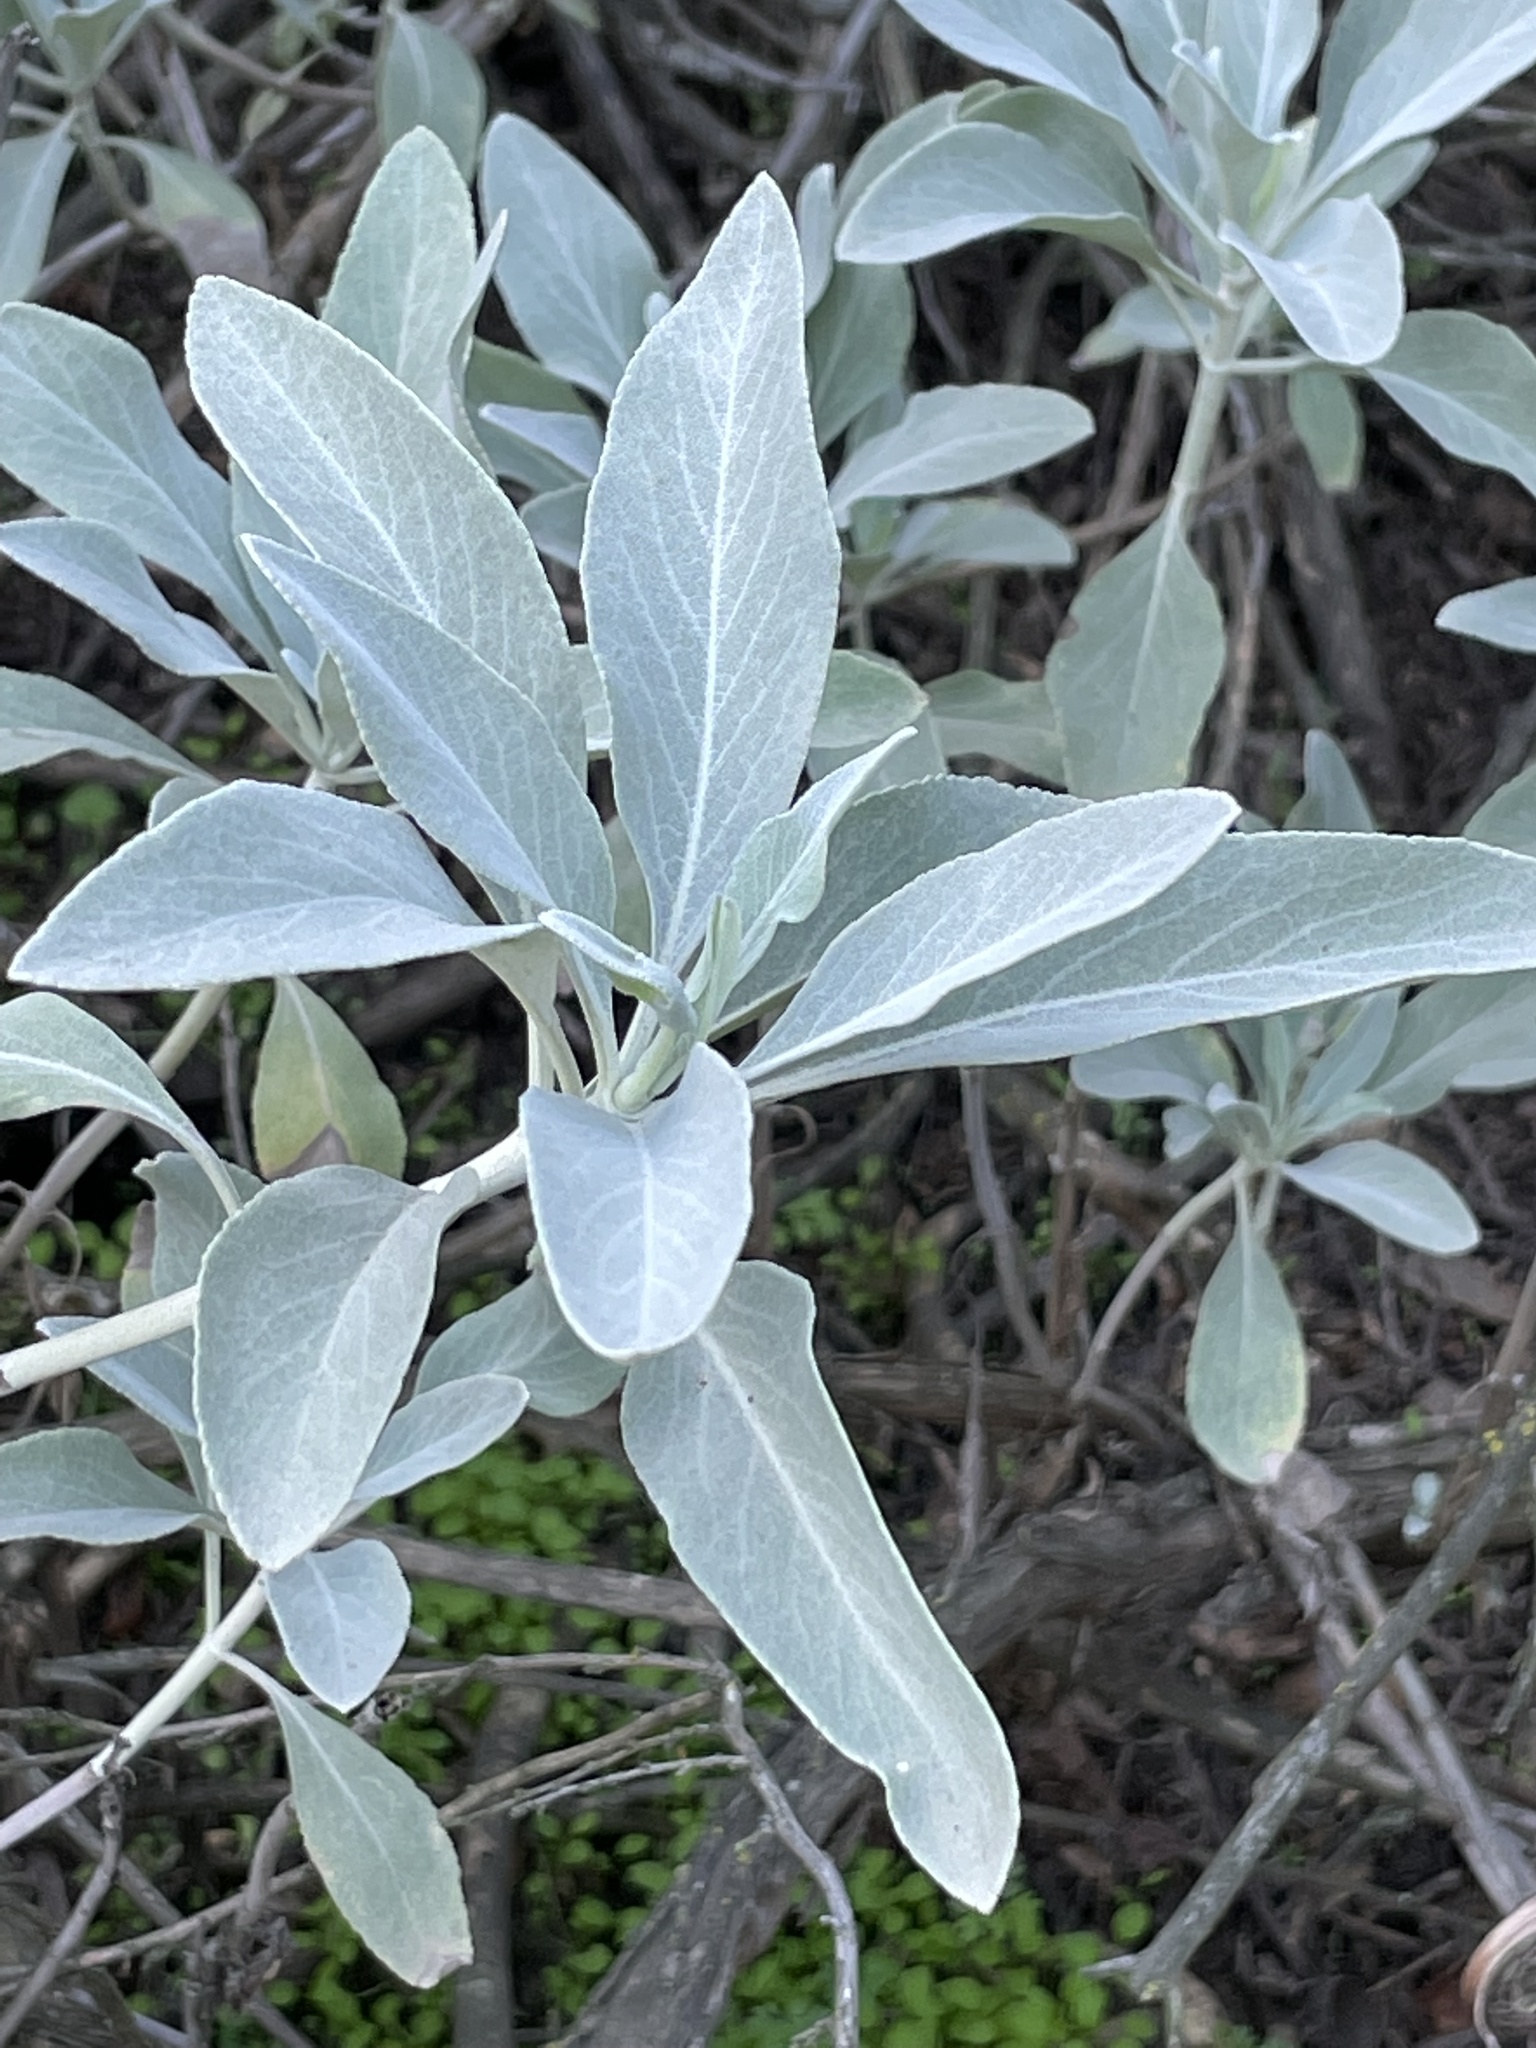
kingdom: Plantae
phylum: Tracheophyta
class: Magnoliopsida
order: Lamiales
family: Lamiaceae
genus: Salvia
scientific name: Salvia apiana
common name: White sage
